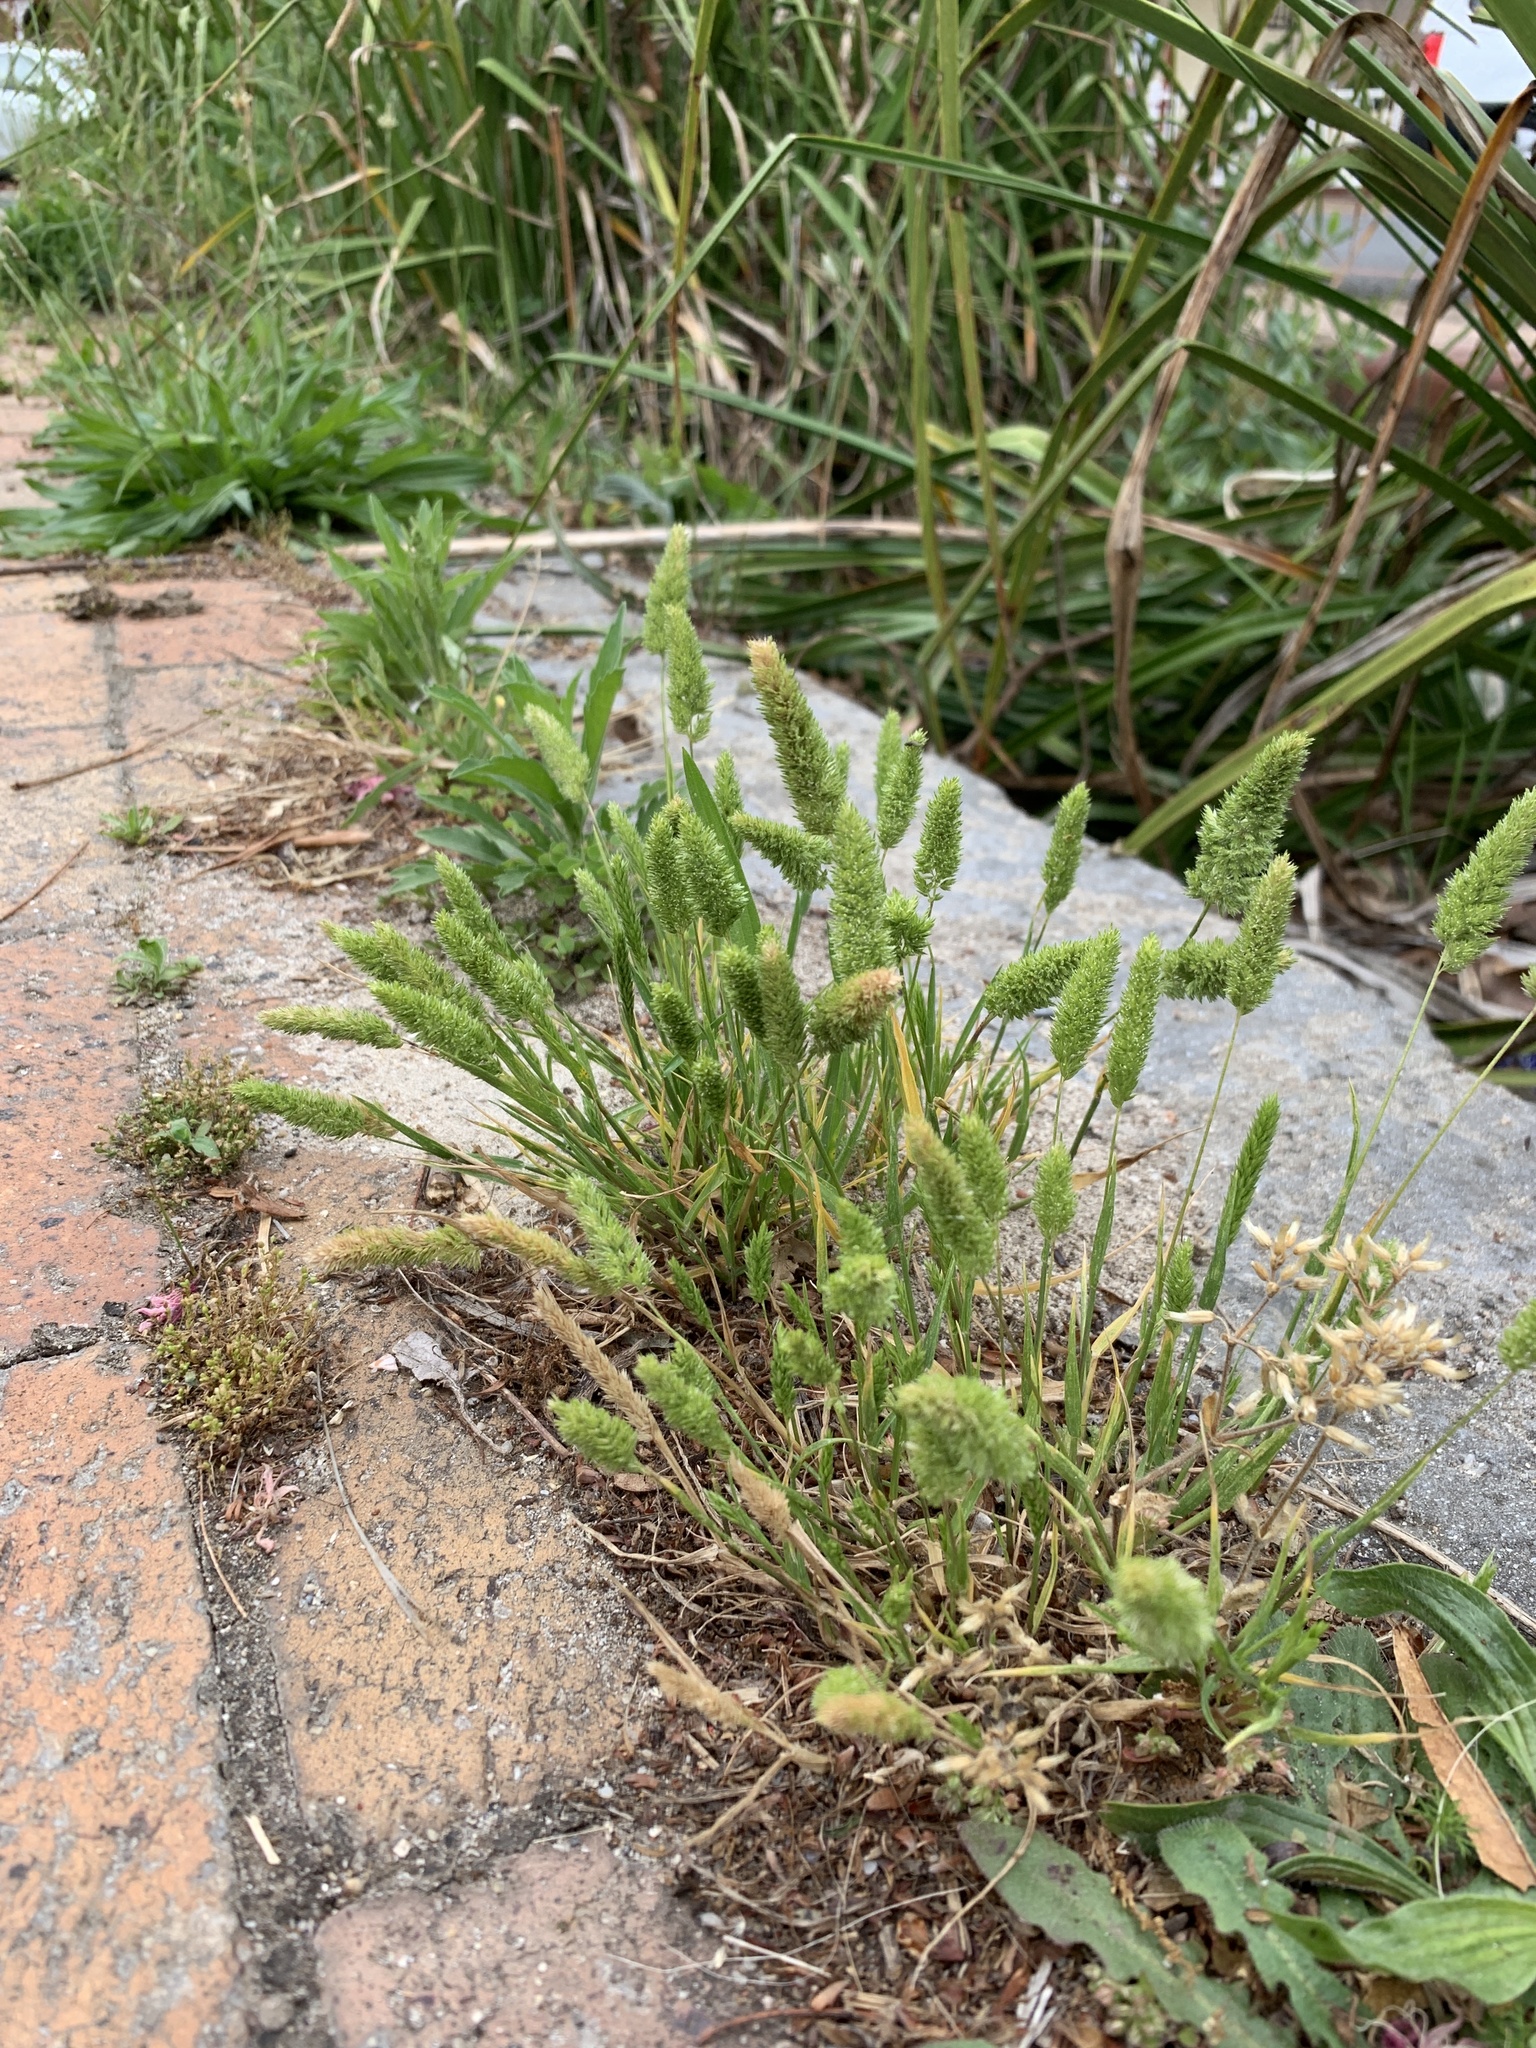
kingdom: Plantae
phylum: Tracheophyta
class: Liliopsida
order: Poales
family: Poaceae
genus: Rostraria
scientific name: Rostraria cristata
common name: Mediterranean hair-grass
